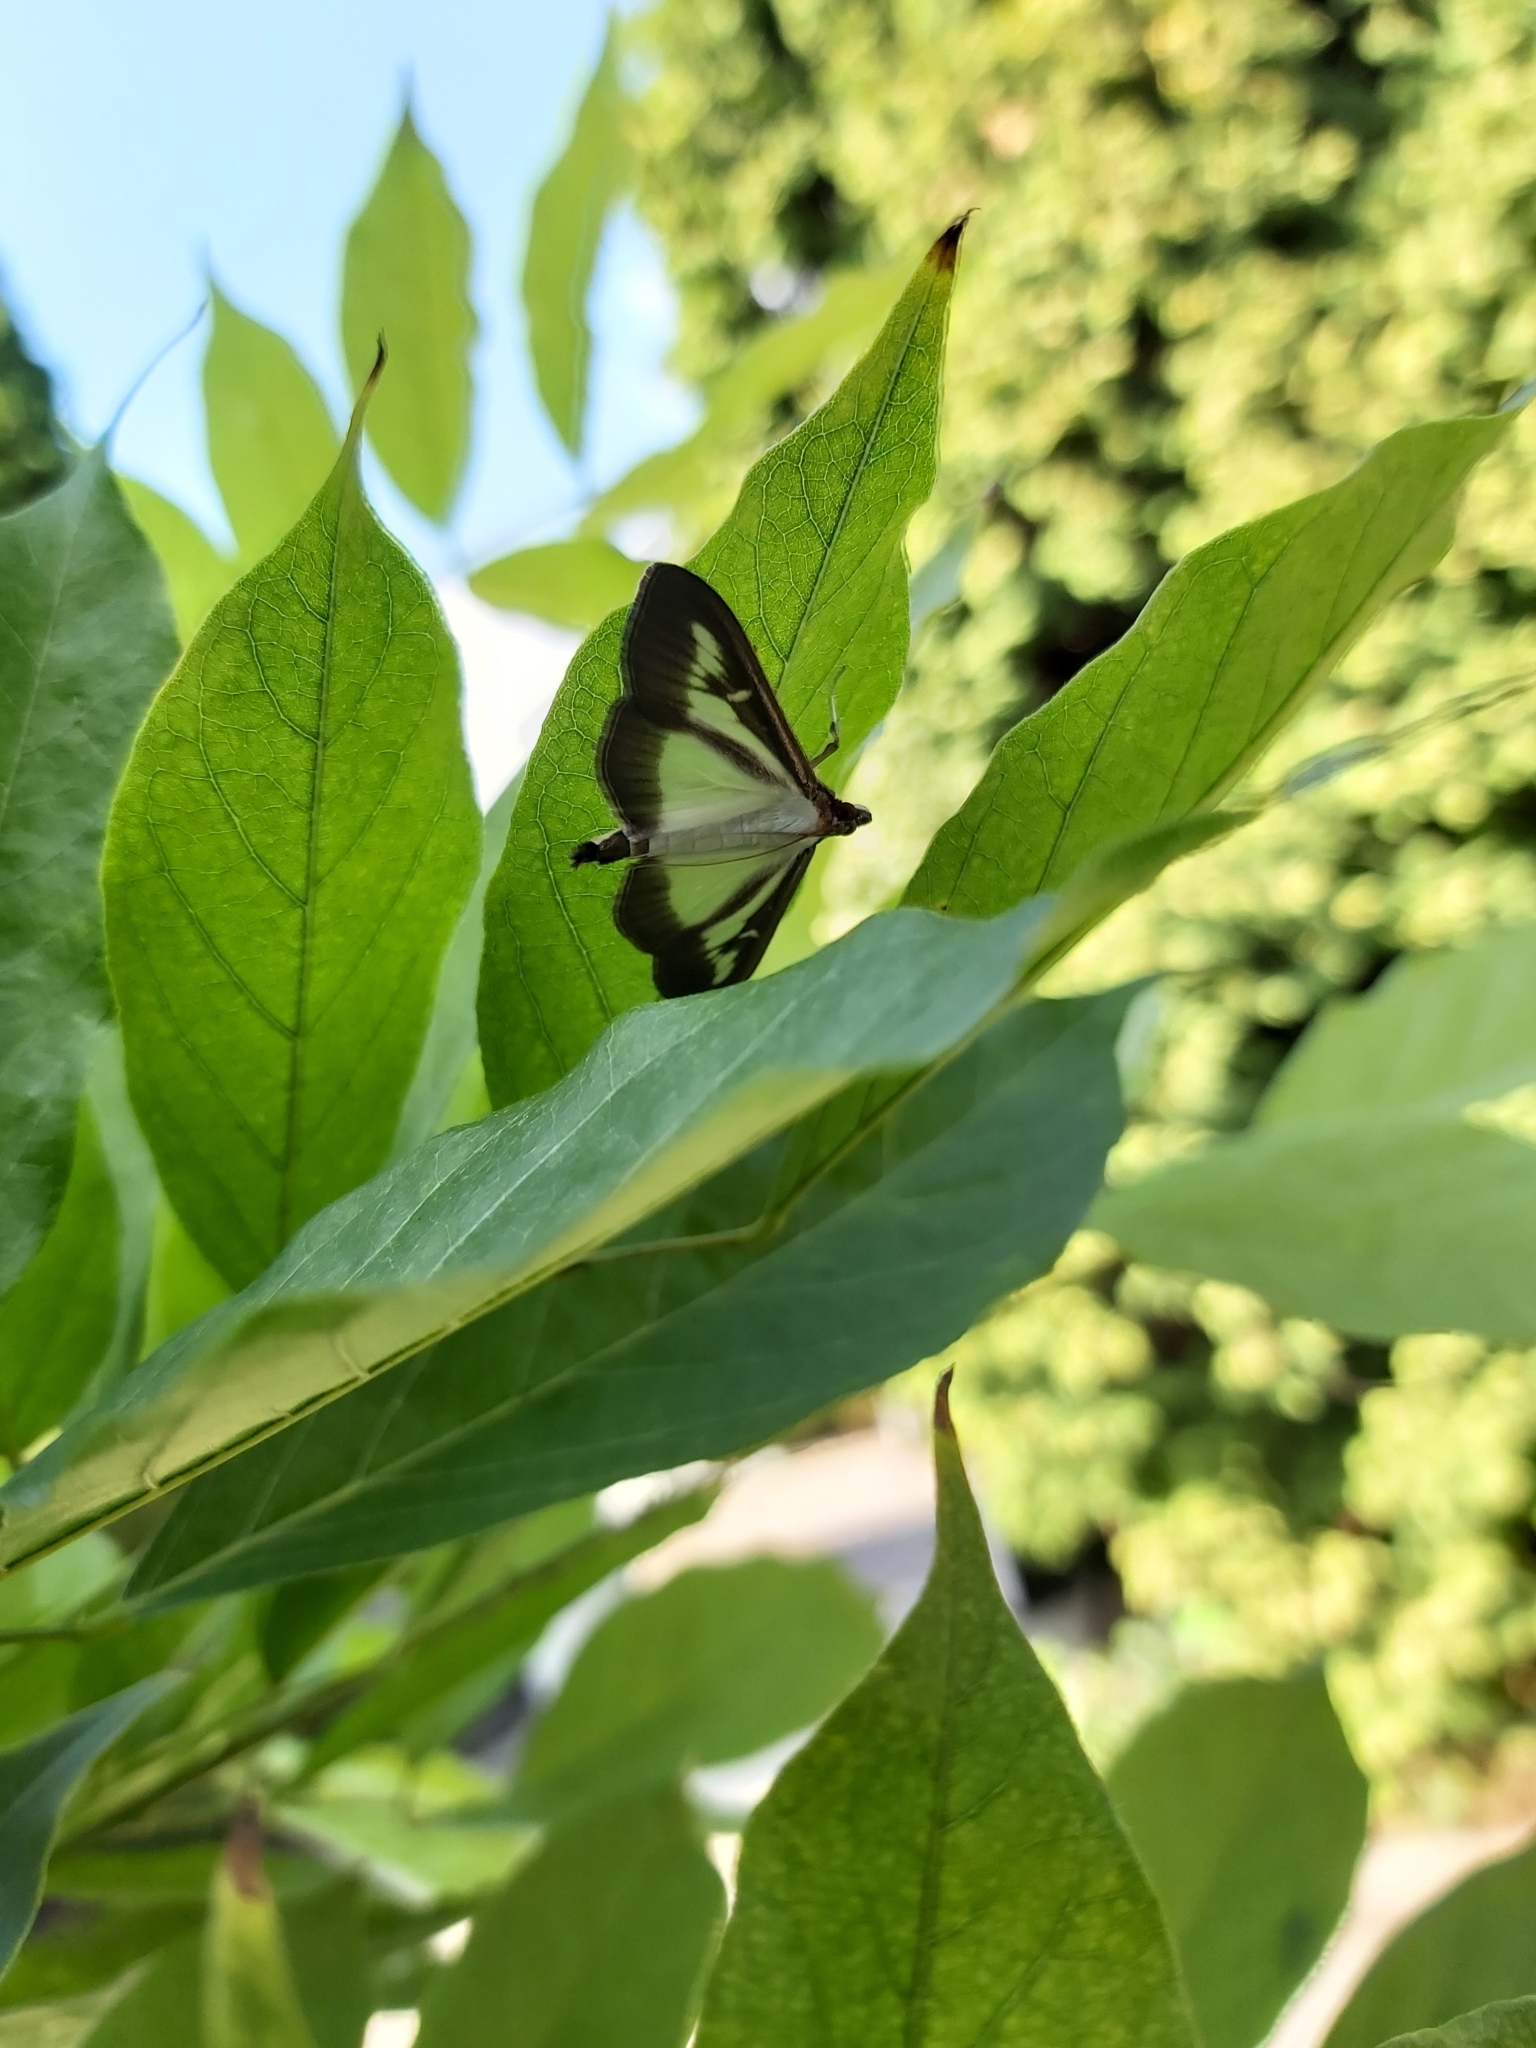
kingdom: Animalia
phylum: Arthropoda
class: Insecta
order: Lepidoptera
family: Crambidae
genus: Cydalima
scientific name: Cydalima perspectalis
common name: Box tree moth
